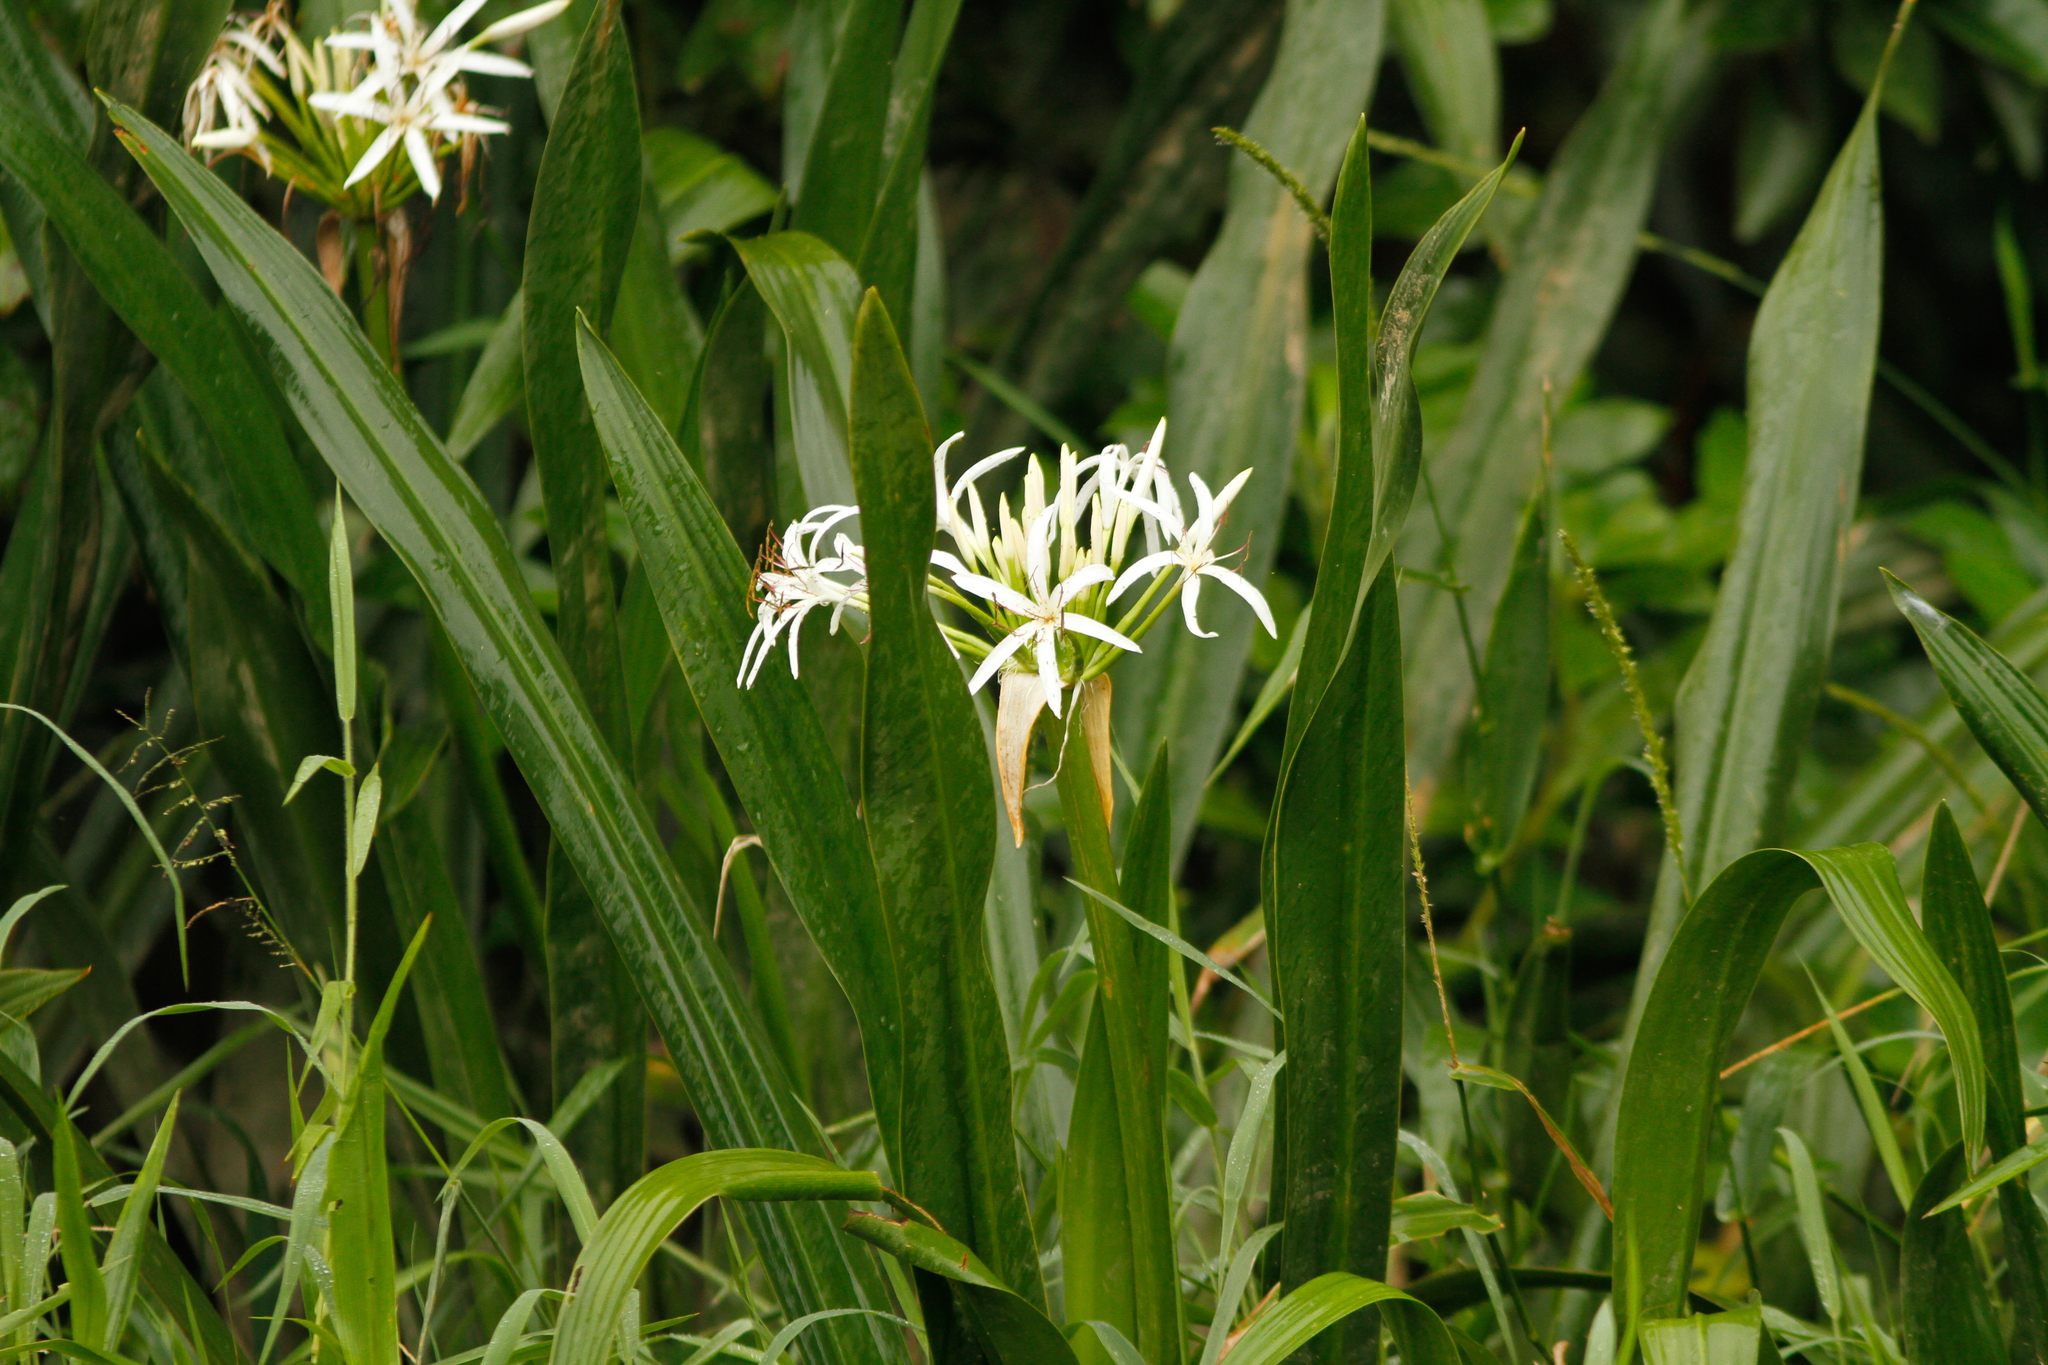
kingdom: Plantae
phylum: Tracheophyta
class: Liliopsida
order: Asparagales
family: Amaryllidaceae
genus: Crinum
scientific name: Crinum pedunculatum
